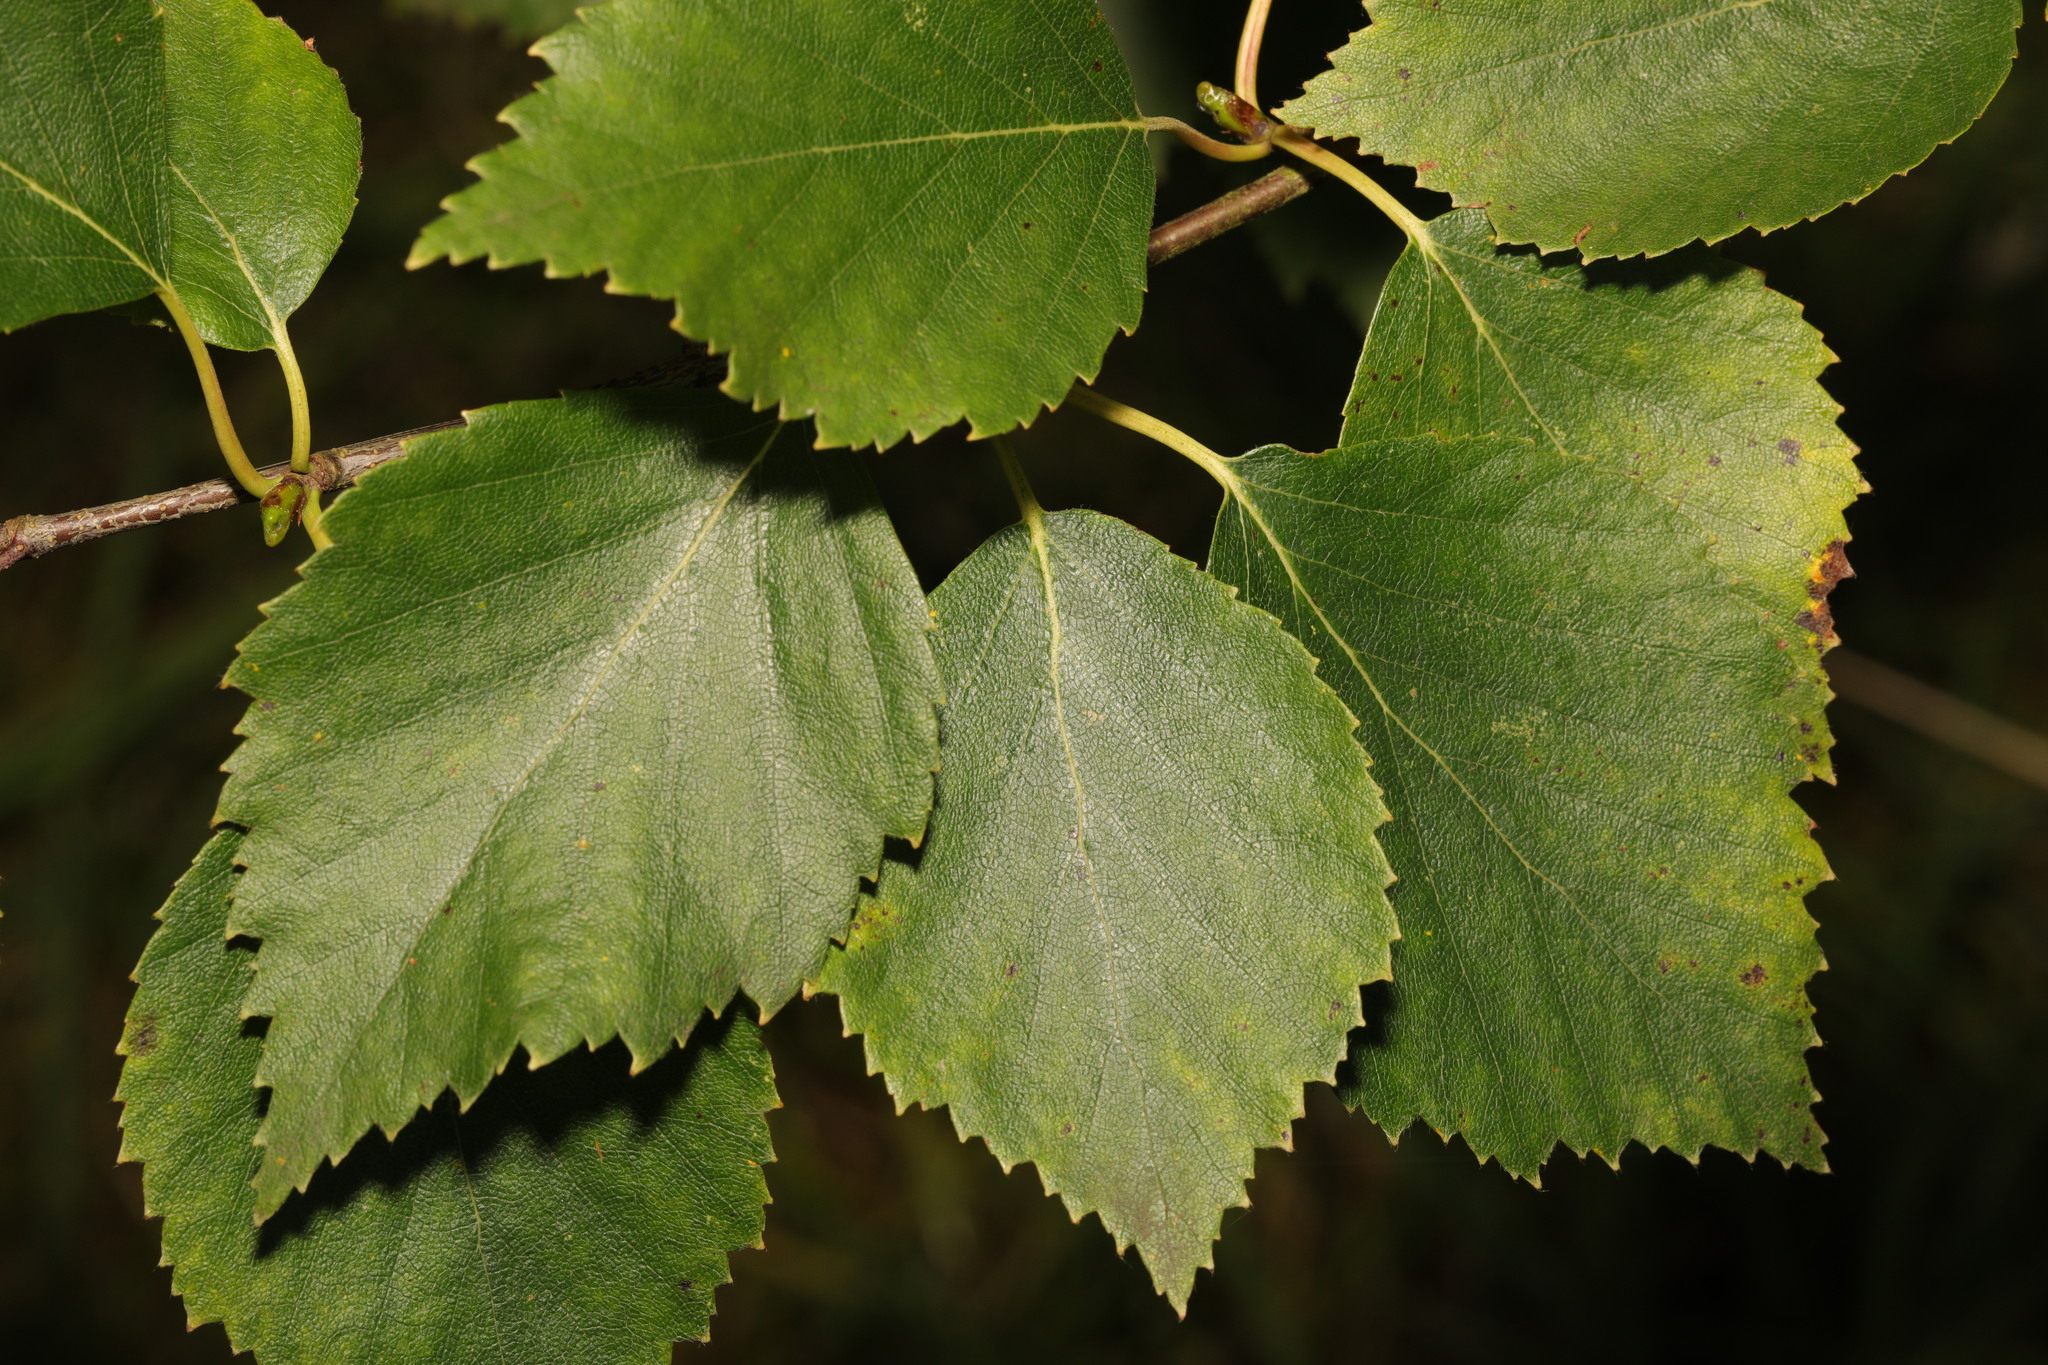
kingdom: Plantae
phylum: Tracheophyta
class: Magnoliopsida
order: Fagales
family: Betulaceae
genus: Betula
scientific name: Betula pendula
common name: Silver birch
